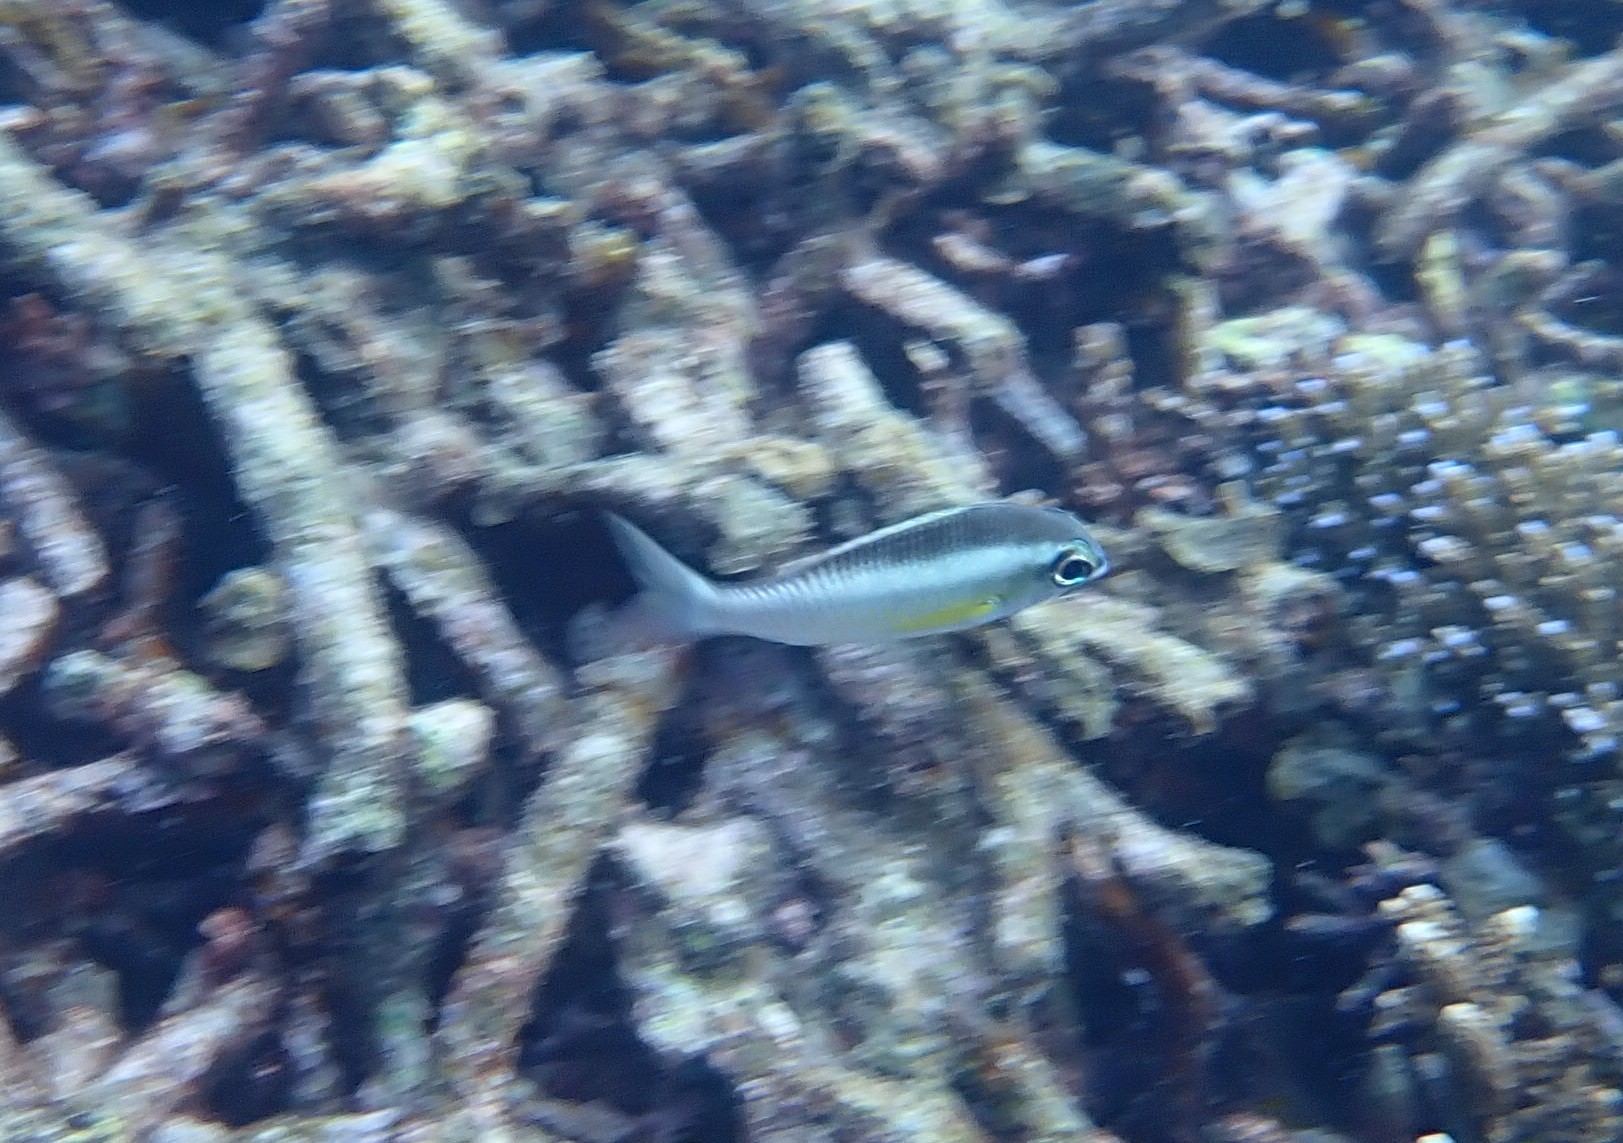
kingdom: Animalia
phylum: Chordata
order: Perciformes
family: Nemipteridae
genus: Scolopsis
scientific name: Scolopsis margaritifera
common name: Pearly monocle bream
